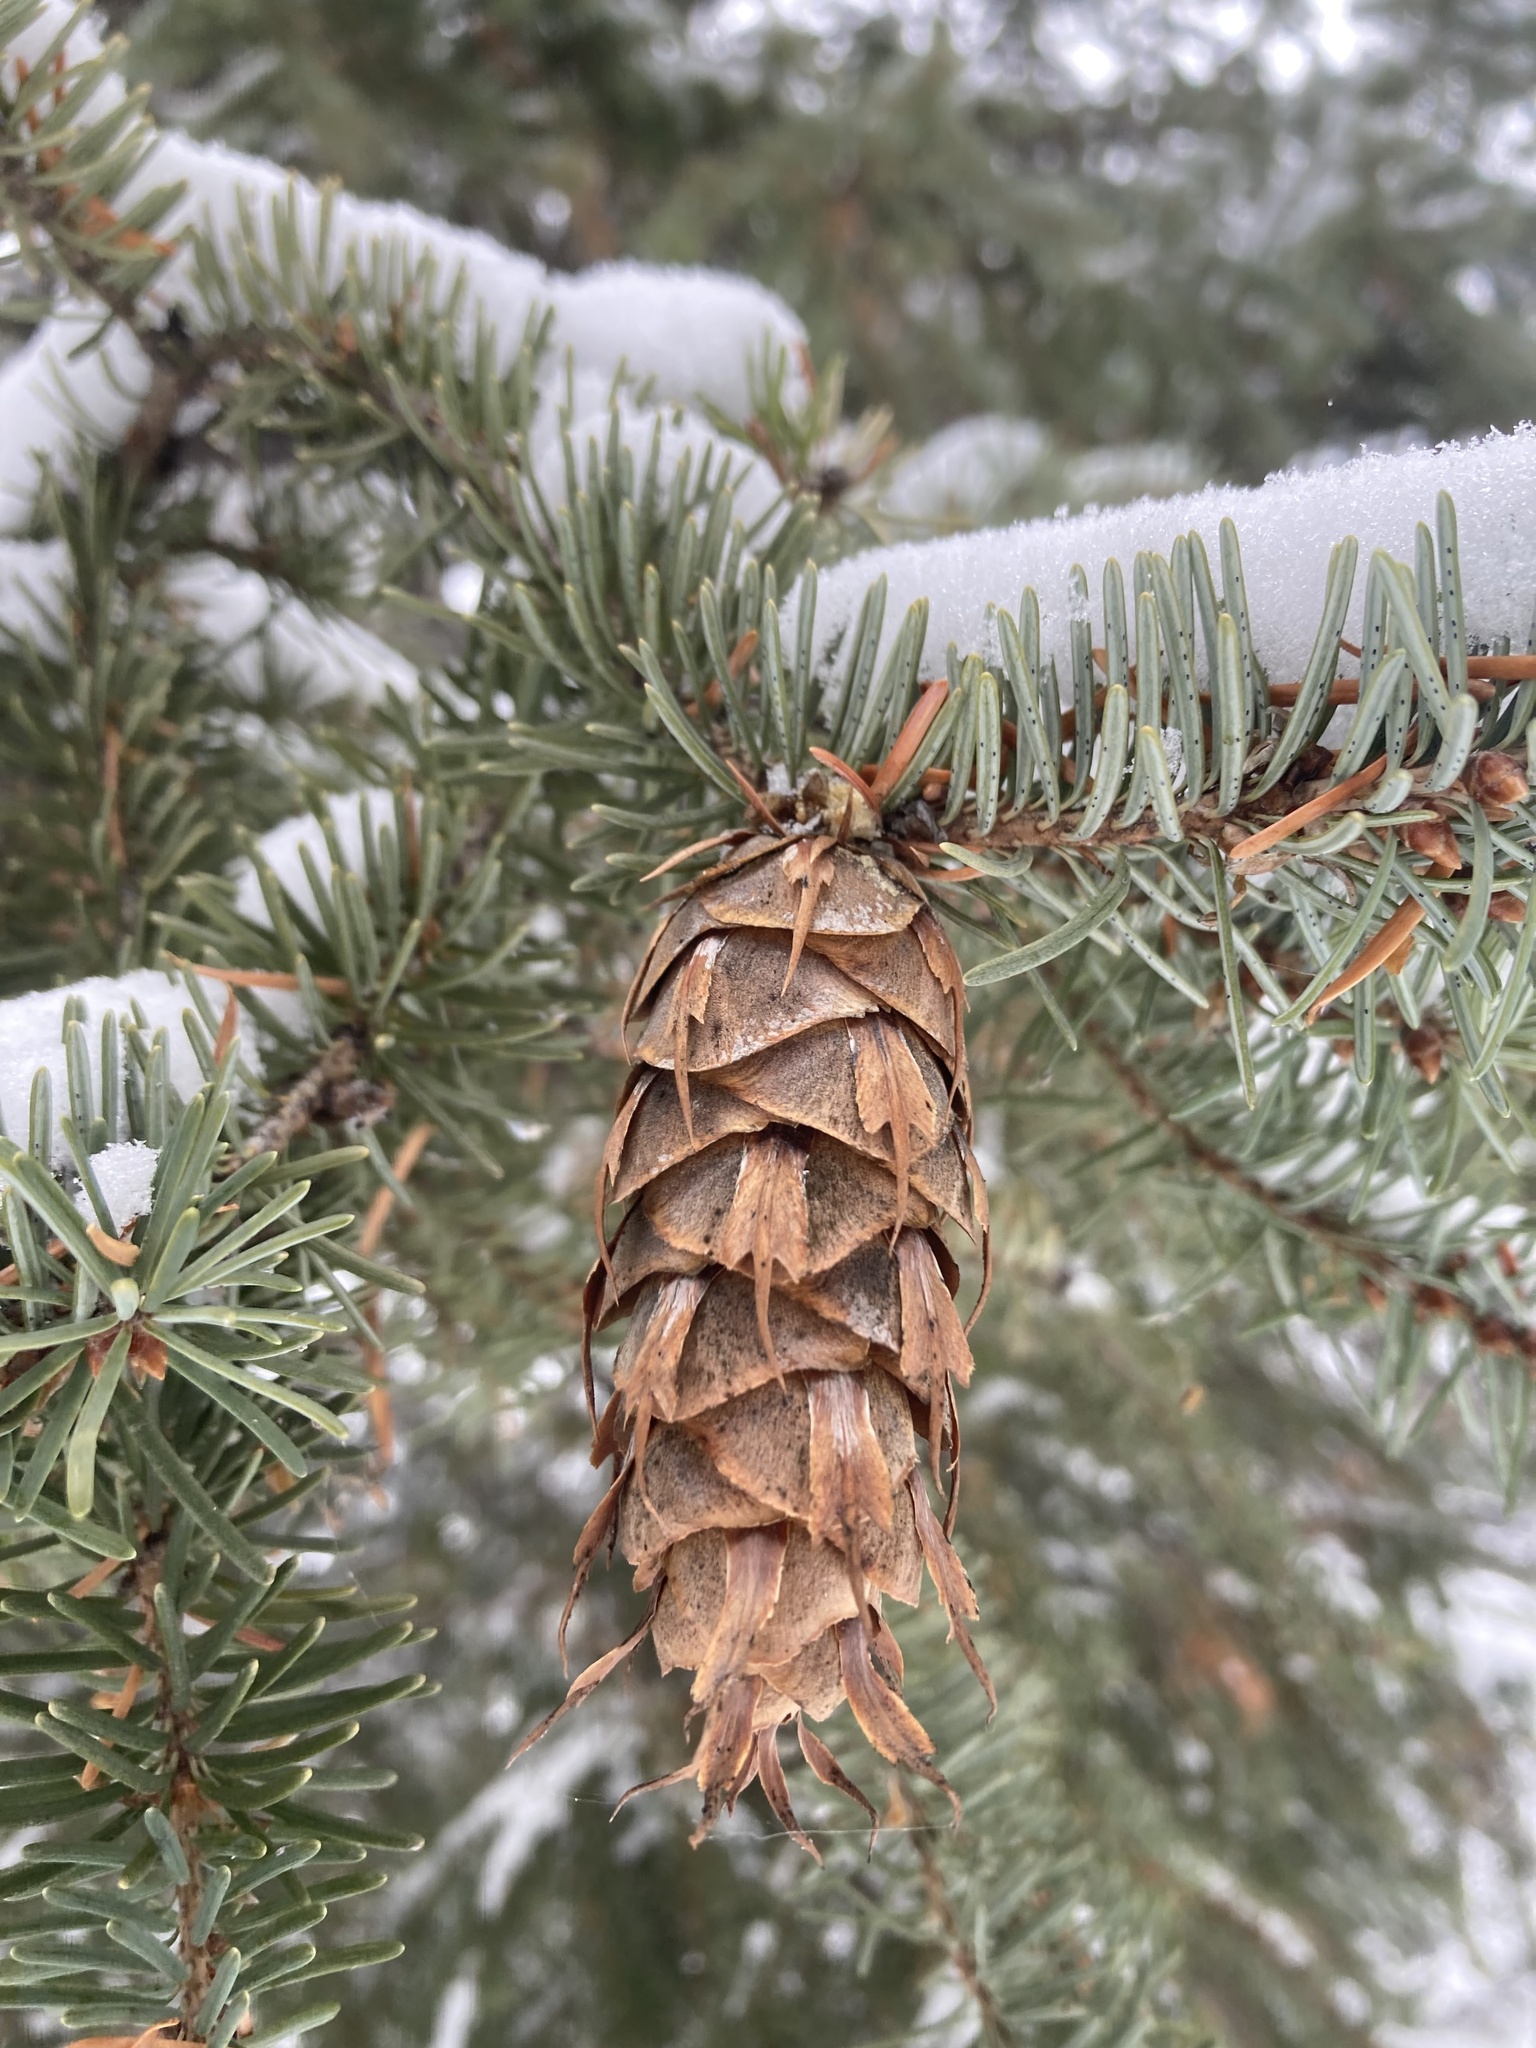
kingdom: Plantae
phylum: Tracheophyta
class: Pinopsida
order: Pinales
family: Pinaceae
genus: Pseudotsuga
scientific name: Pseudotsuga menziesii
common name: Douglas fir
